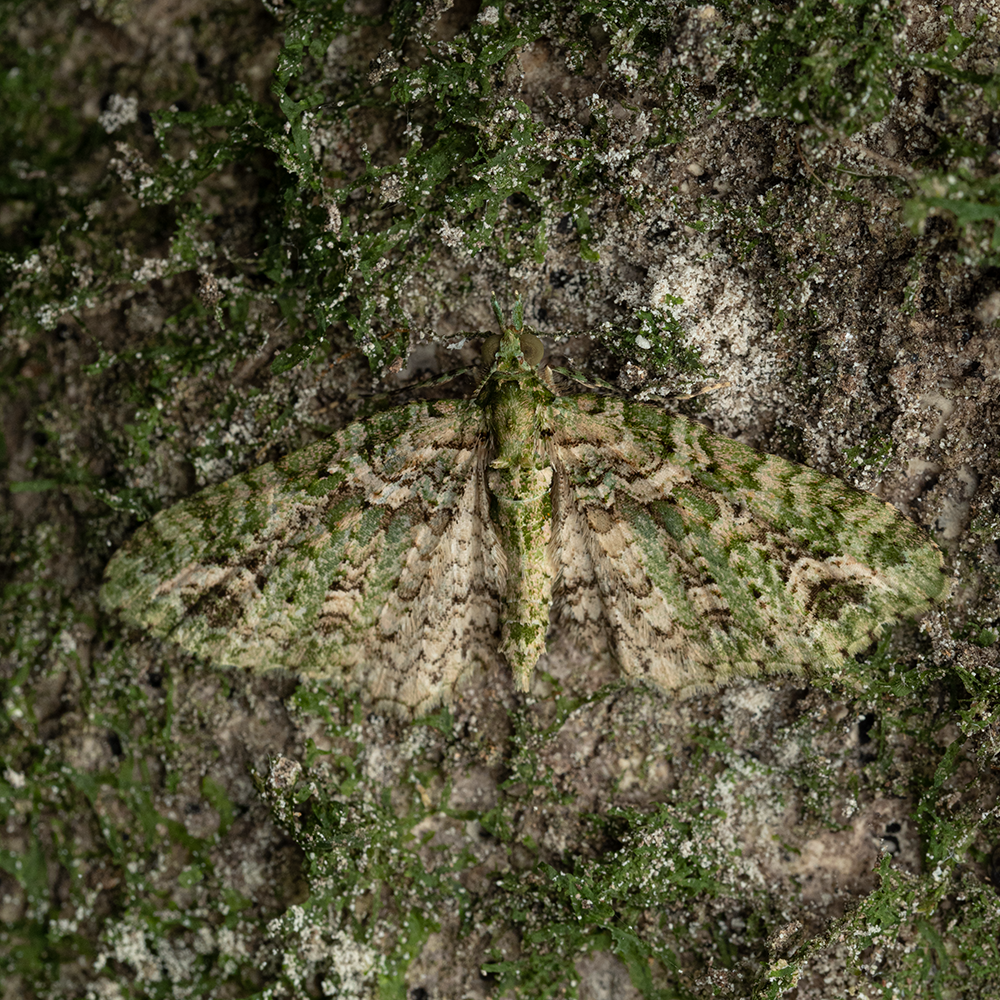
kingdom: Animalia
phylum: Arthropoda
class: Insecta
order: Lepidoptera
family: Geometridae
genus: Pasiphila
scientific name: Pasiphila muscosata
